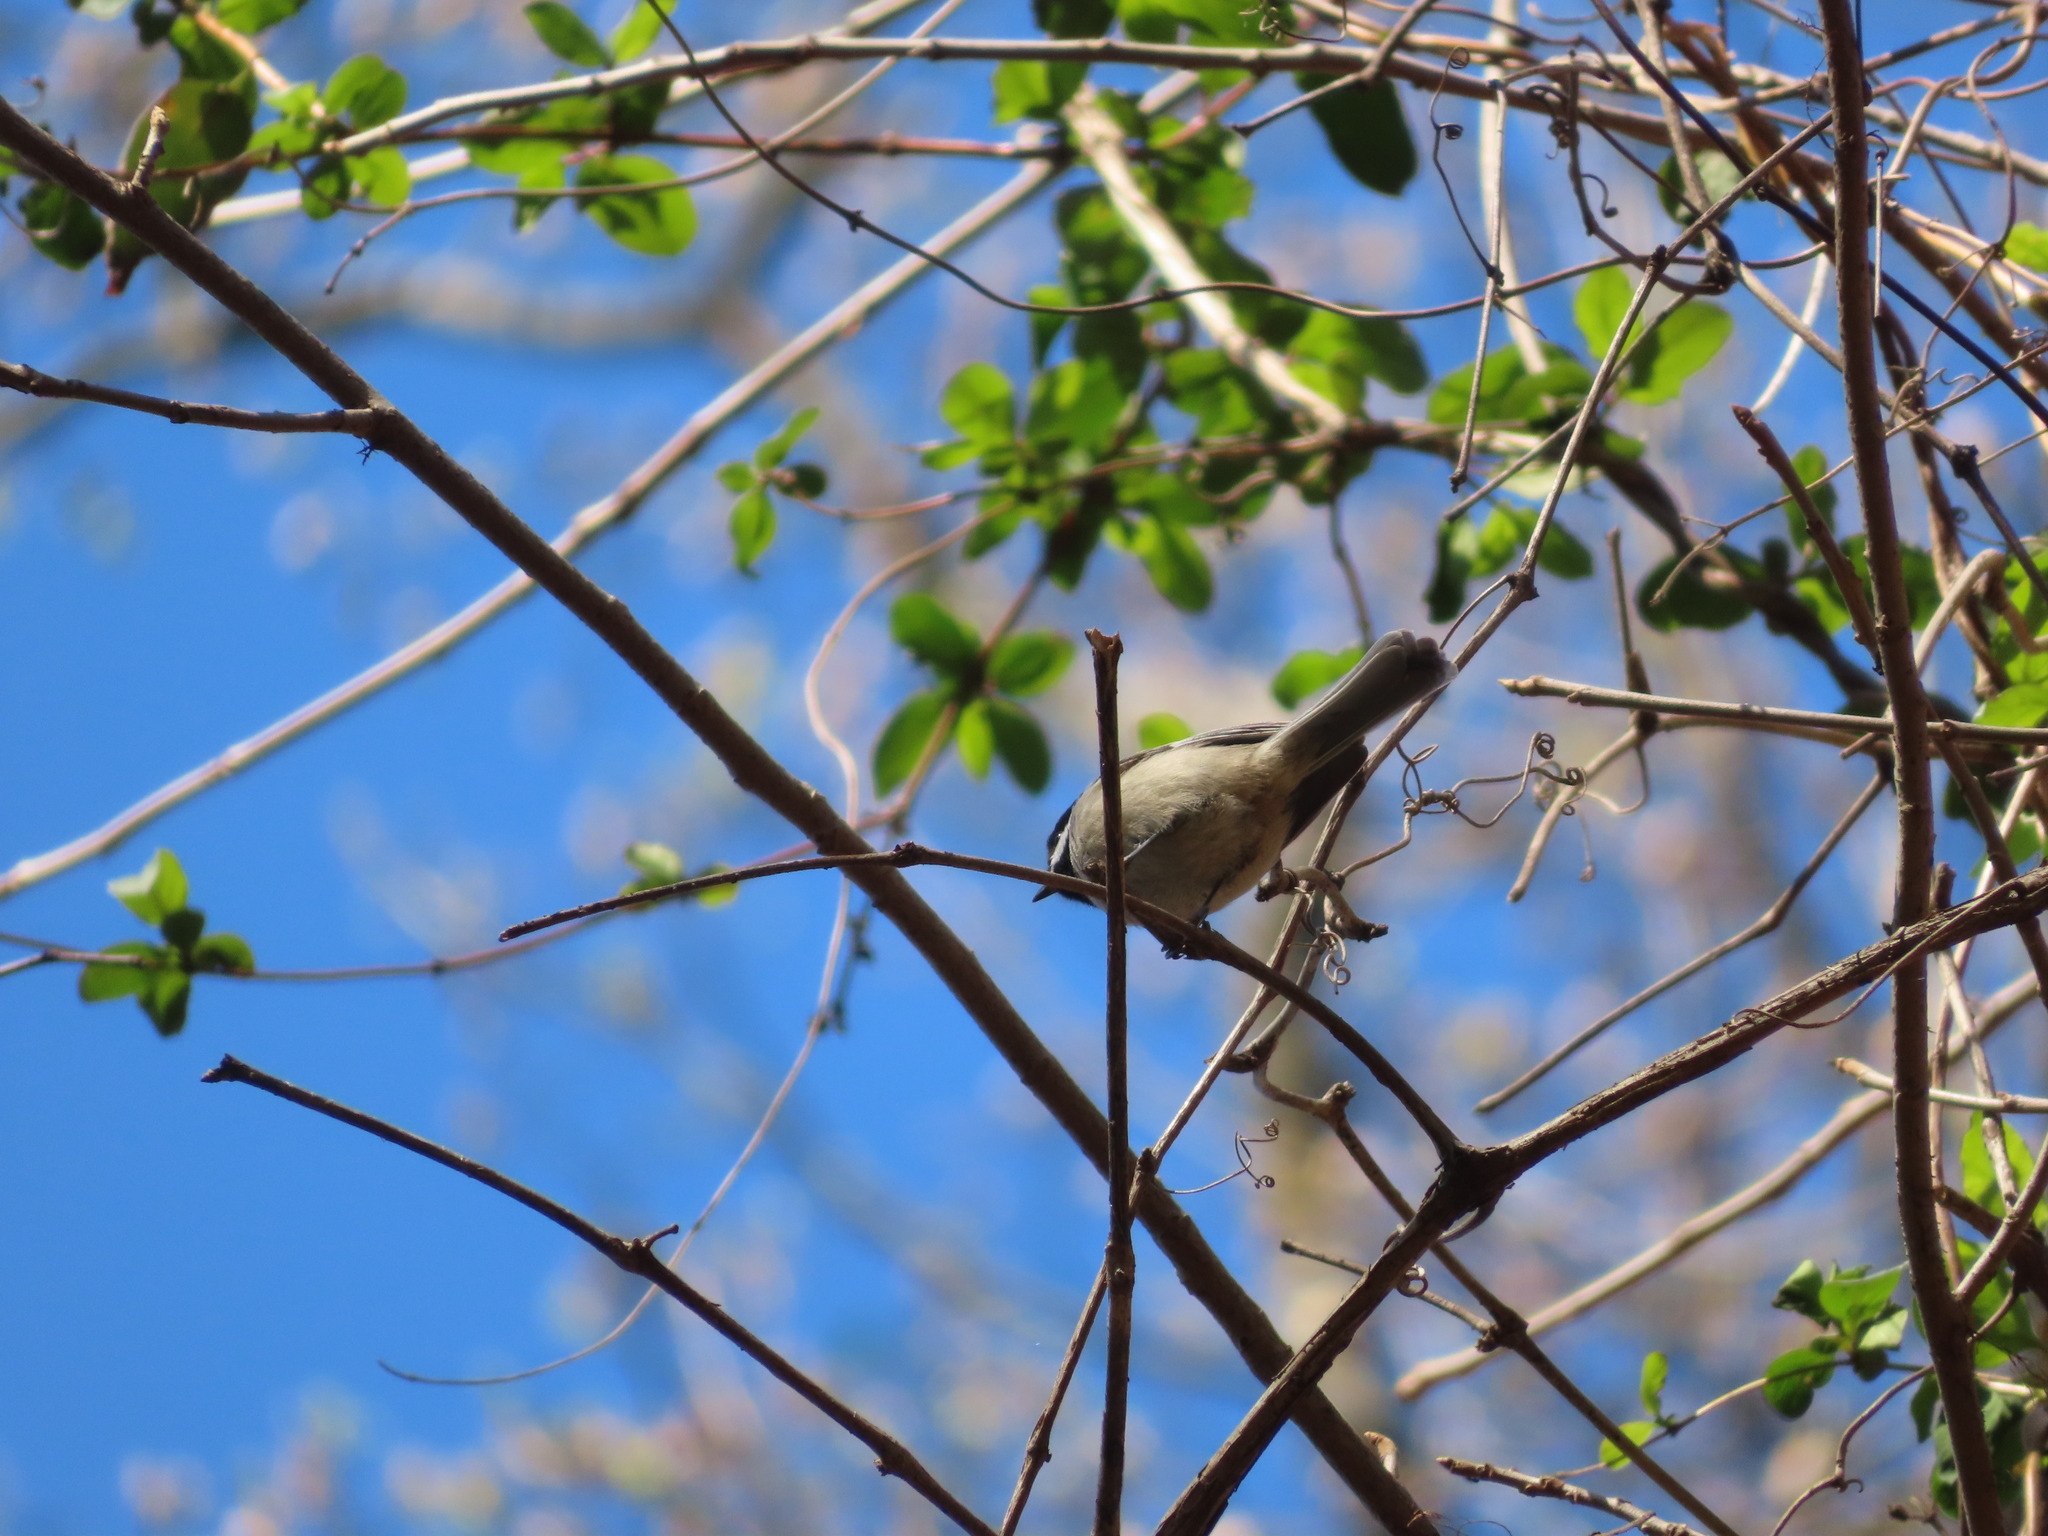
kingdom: Animalia
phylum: Chordata
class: Aves
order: Passeriformes
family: Paridae
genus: Poecile
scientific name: Poecile carolinensis
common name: Carolina chickadee
